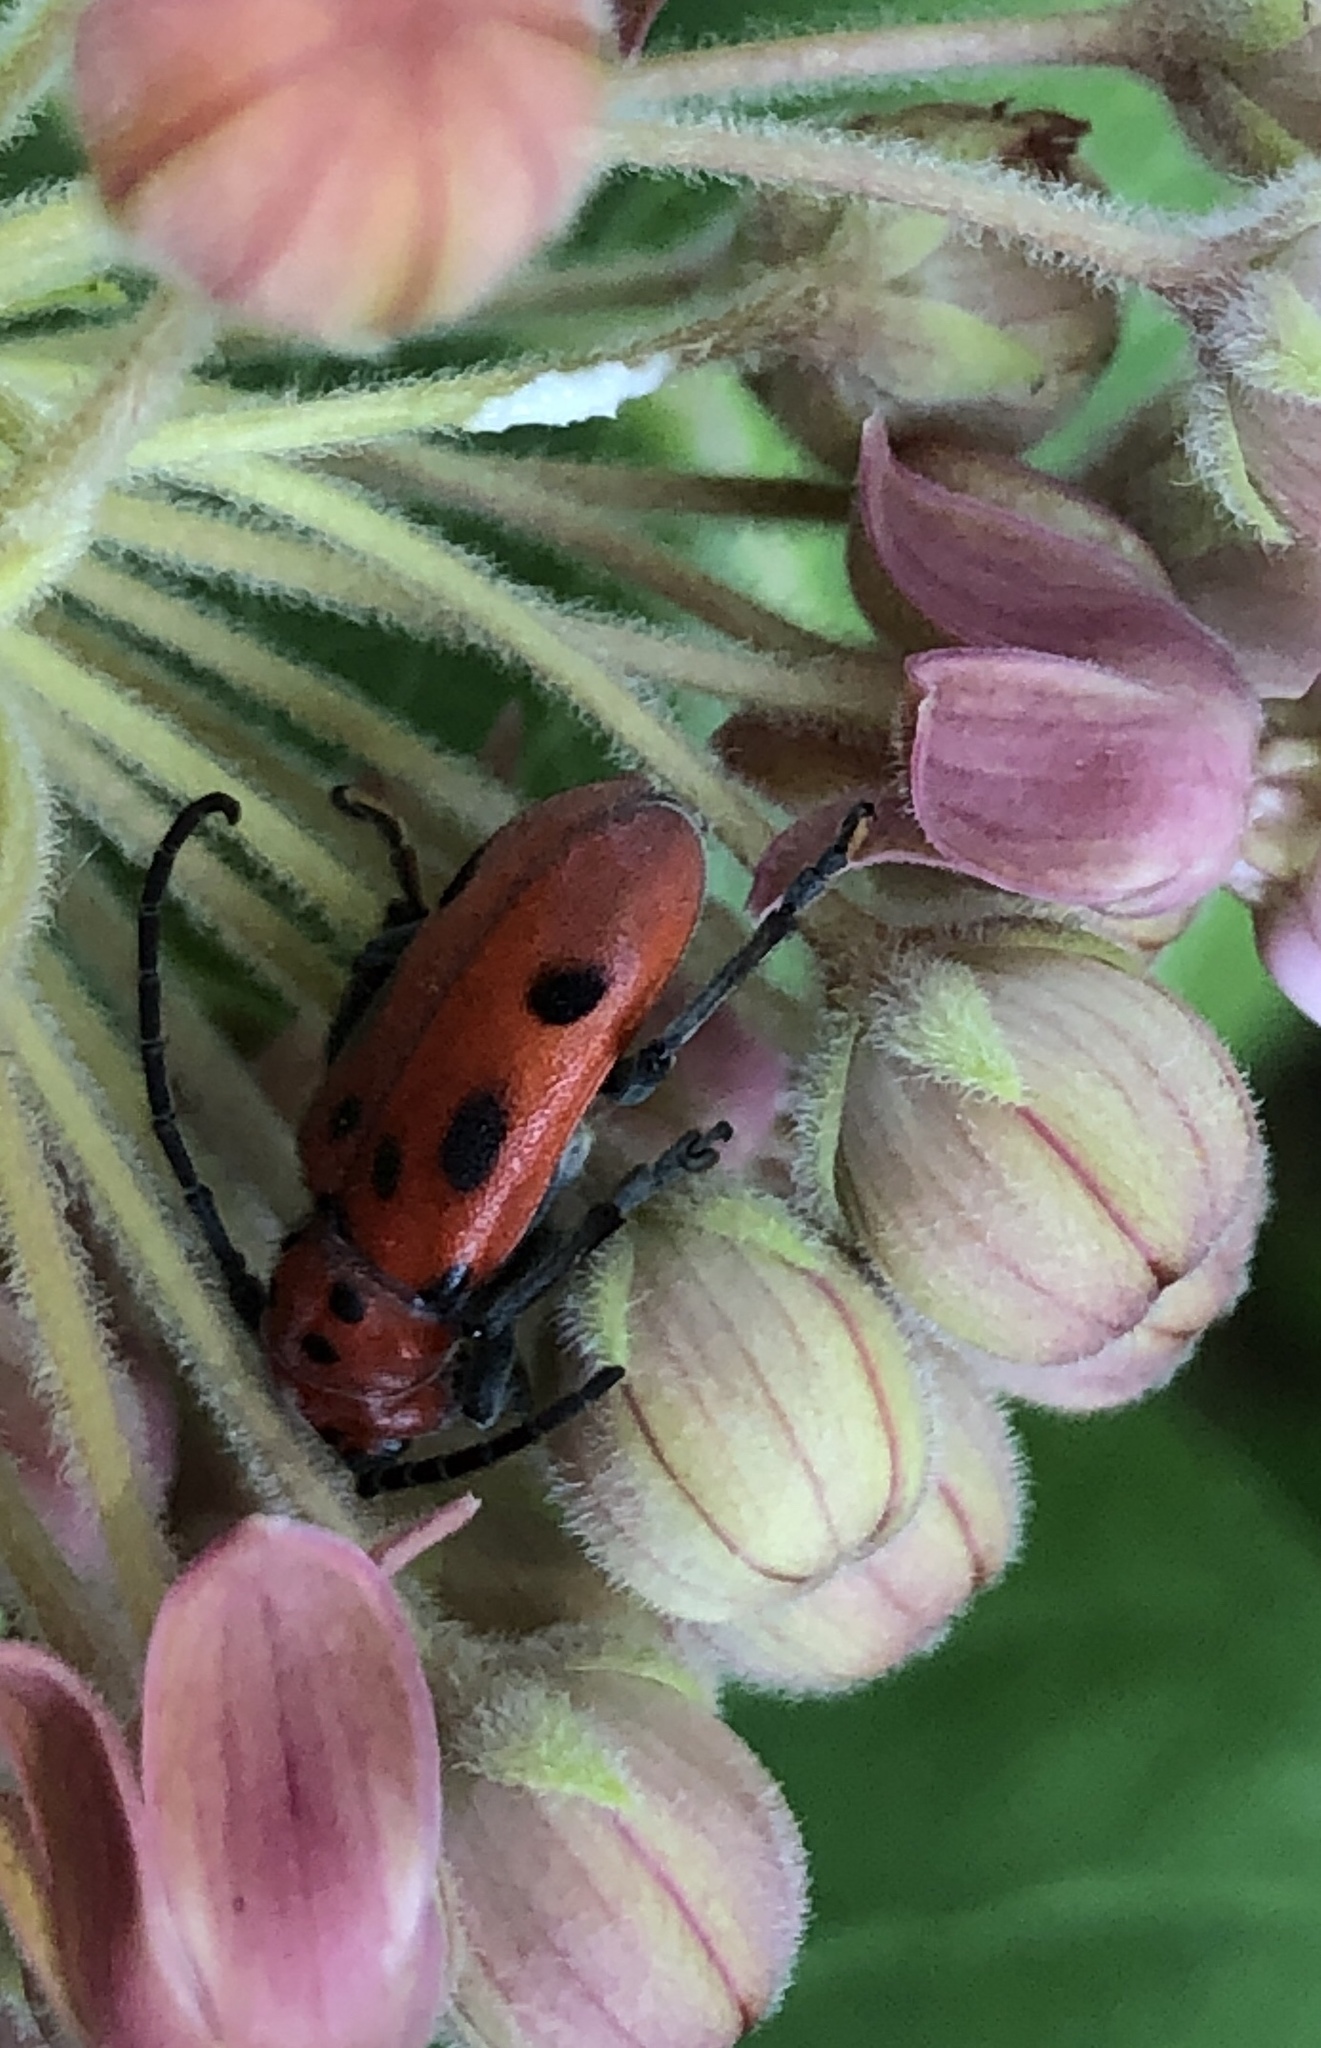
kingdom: Animalia
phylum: Arthropoda
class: Insecta
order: Coleoptera
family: Cerambycidae
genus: Tetraopes
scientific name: Tetraopes tetrophthalmus
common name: Red milkweed beetle
